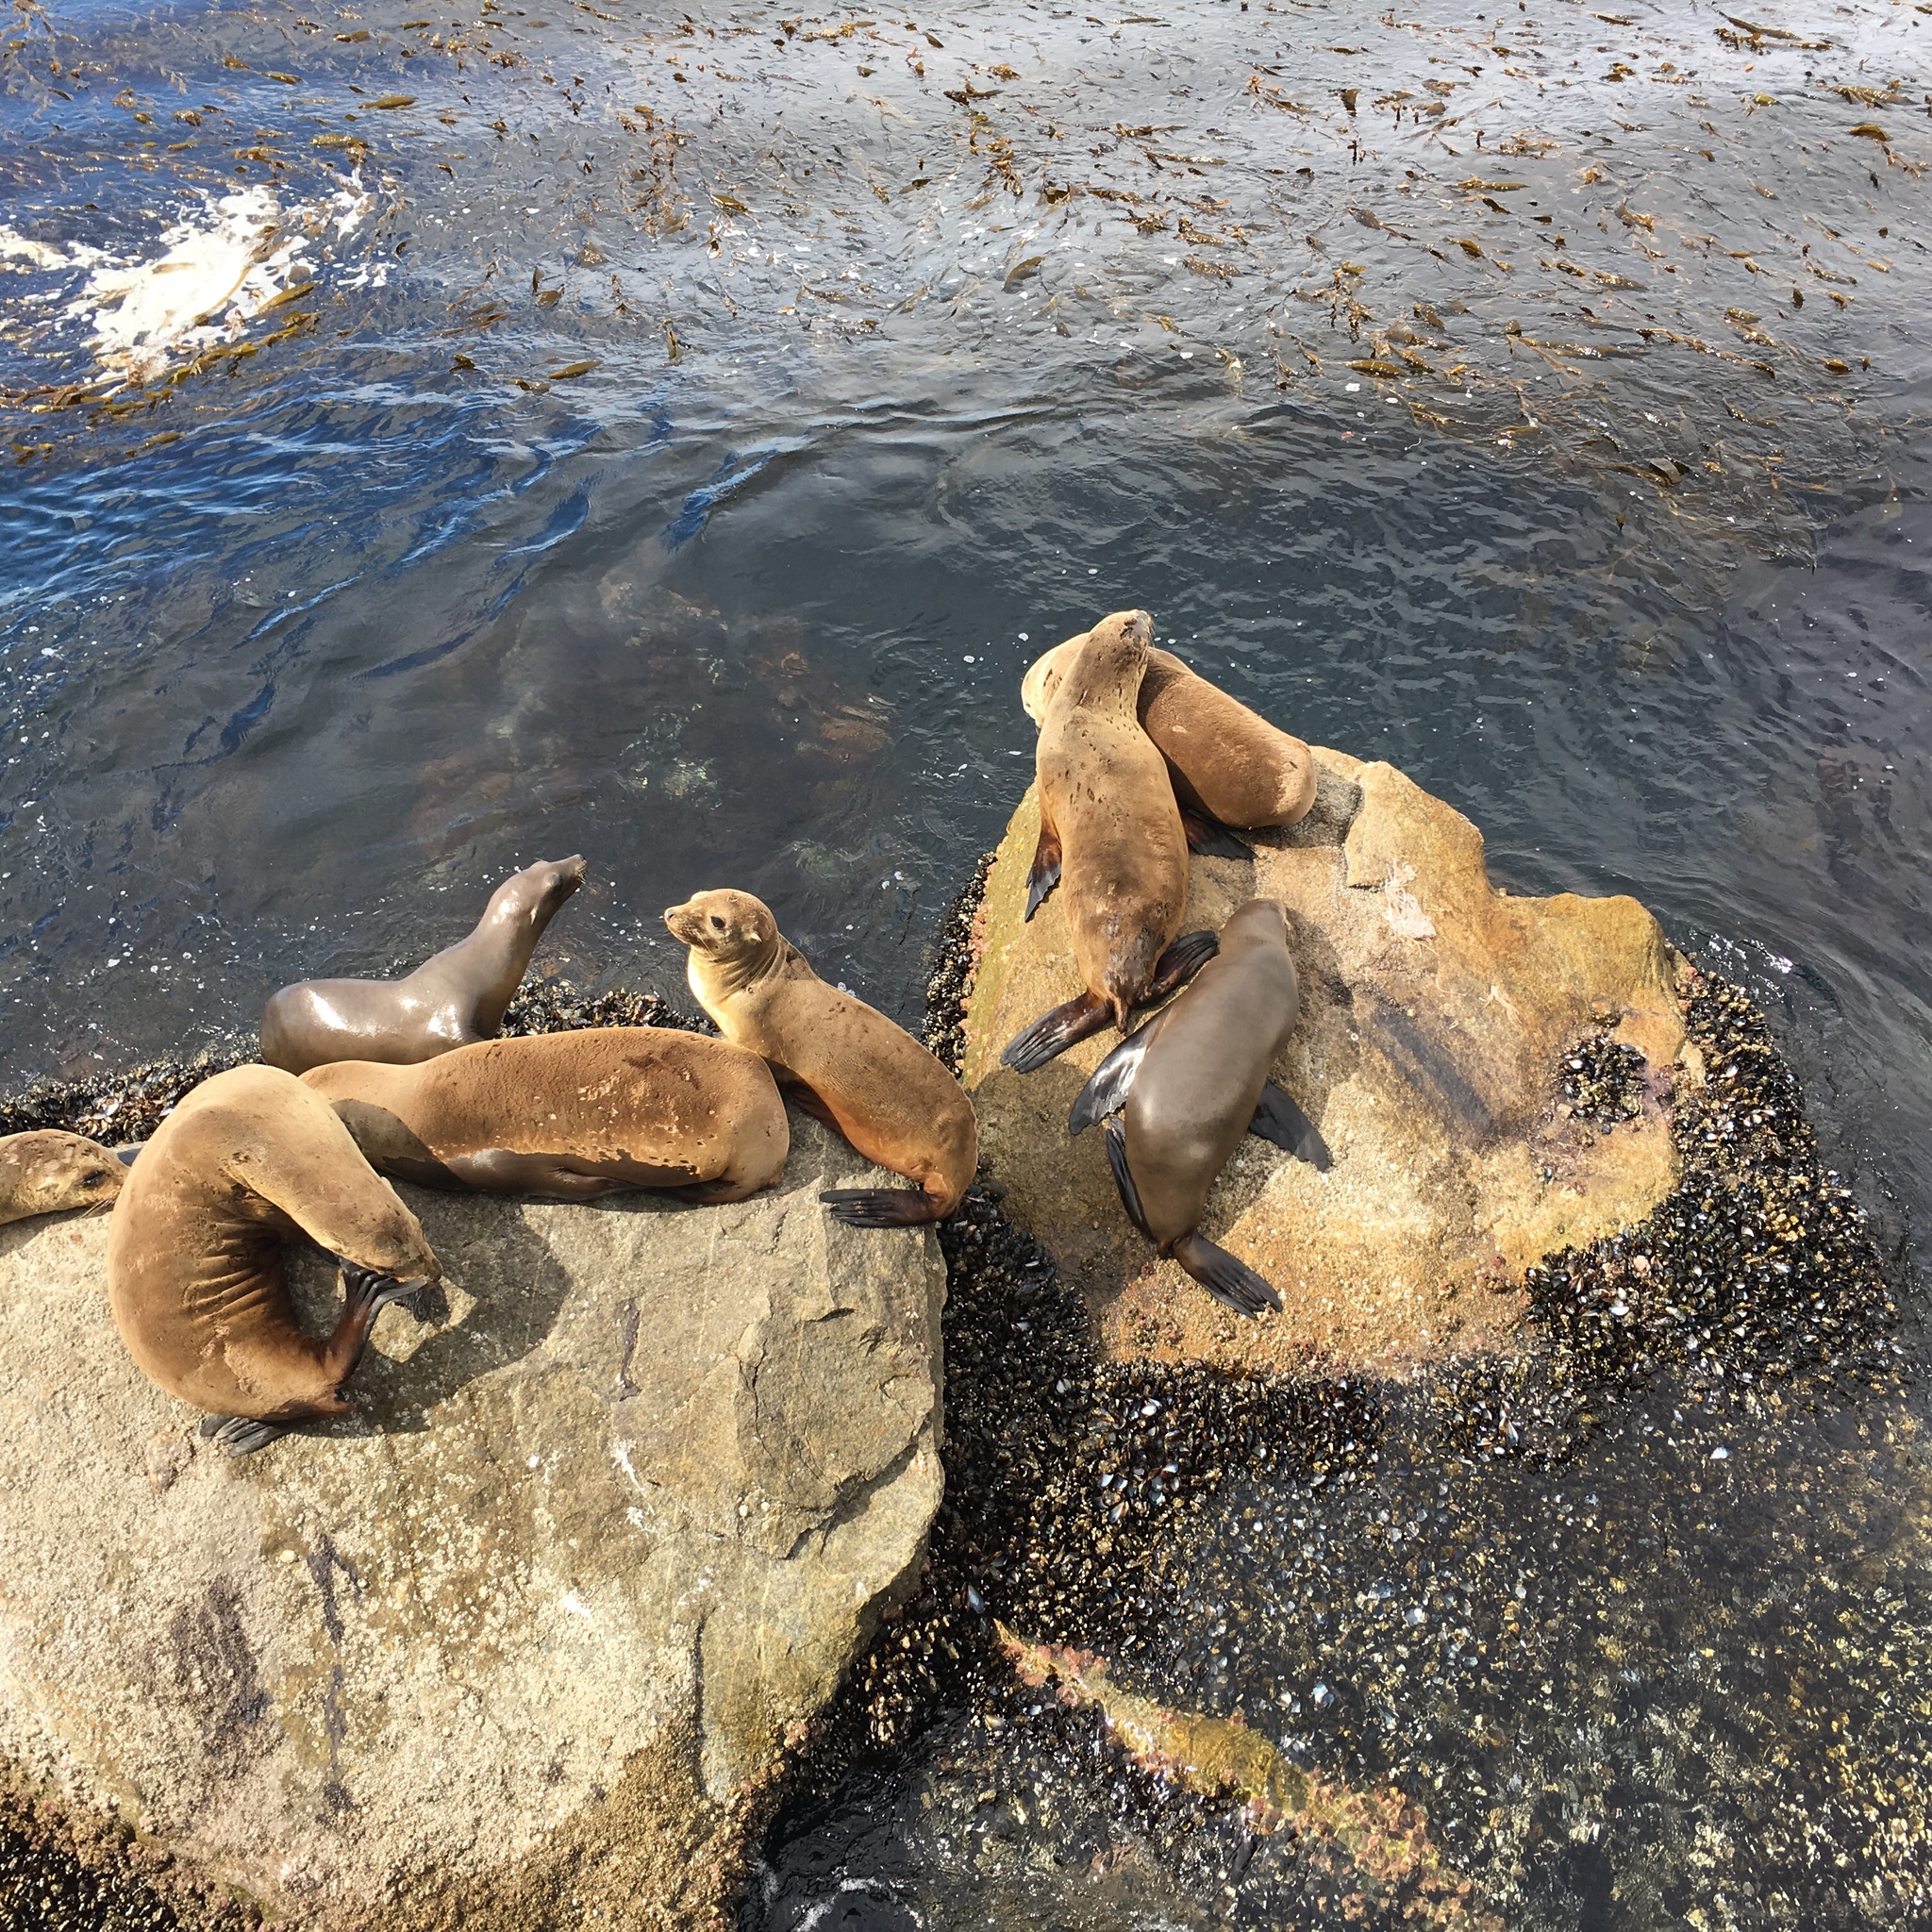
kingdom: Animalia
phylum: Chordata
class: Mammalia
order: Carnivora
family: Otariidae
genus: Zalophus
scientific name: Zalophus californianus
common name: California sea lion
